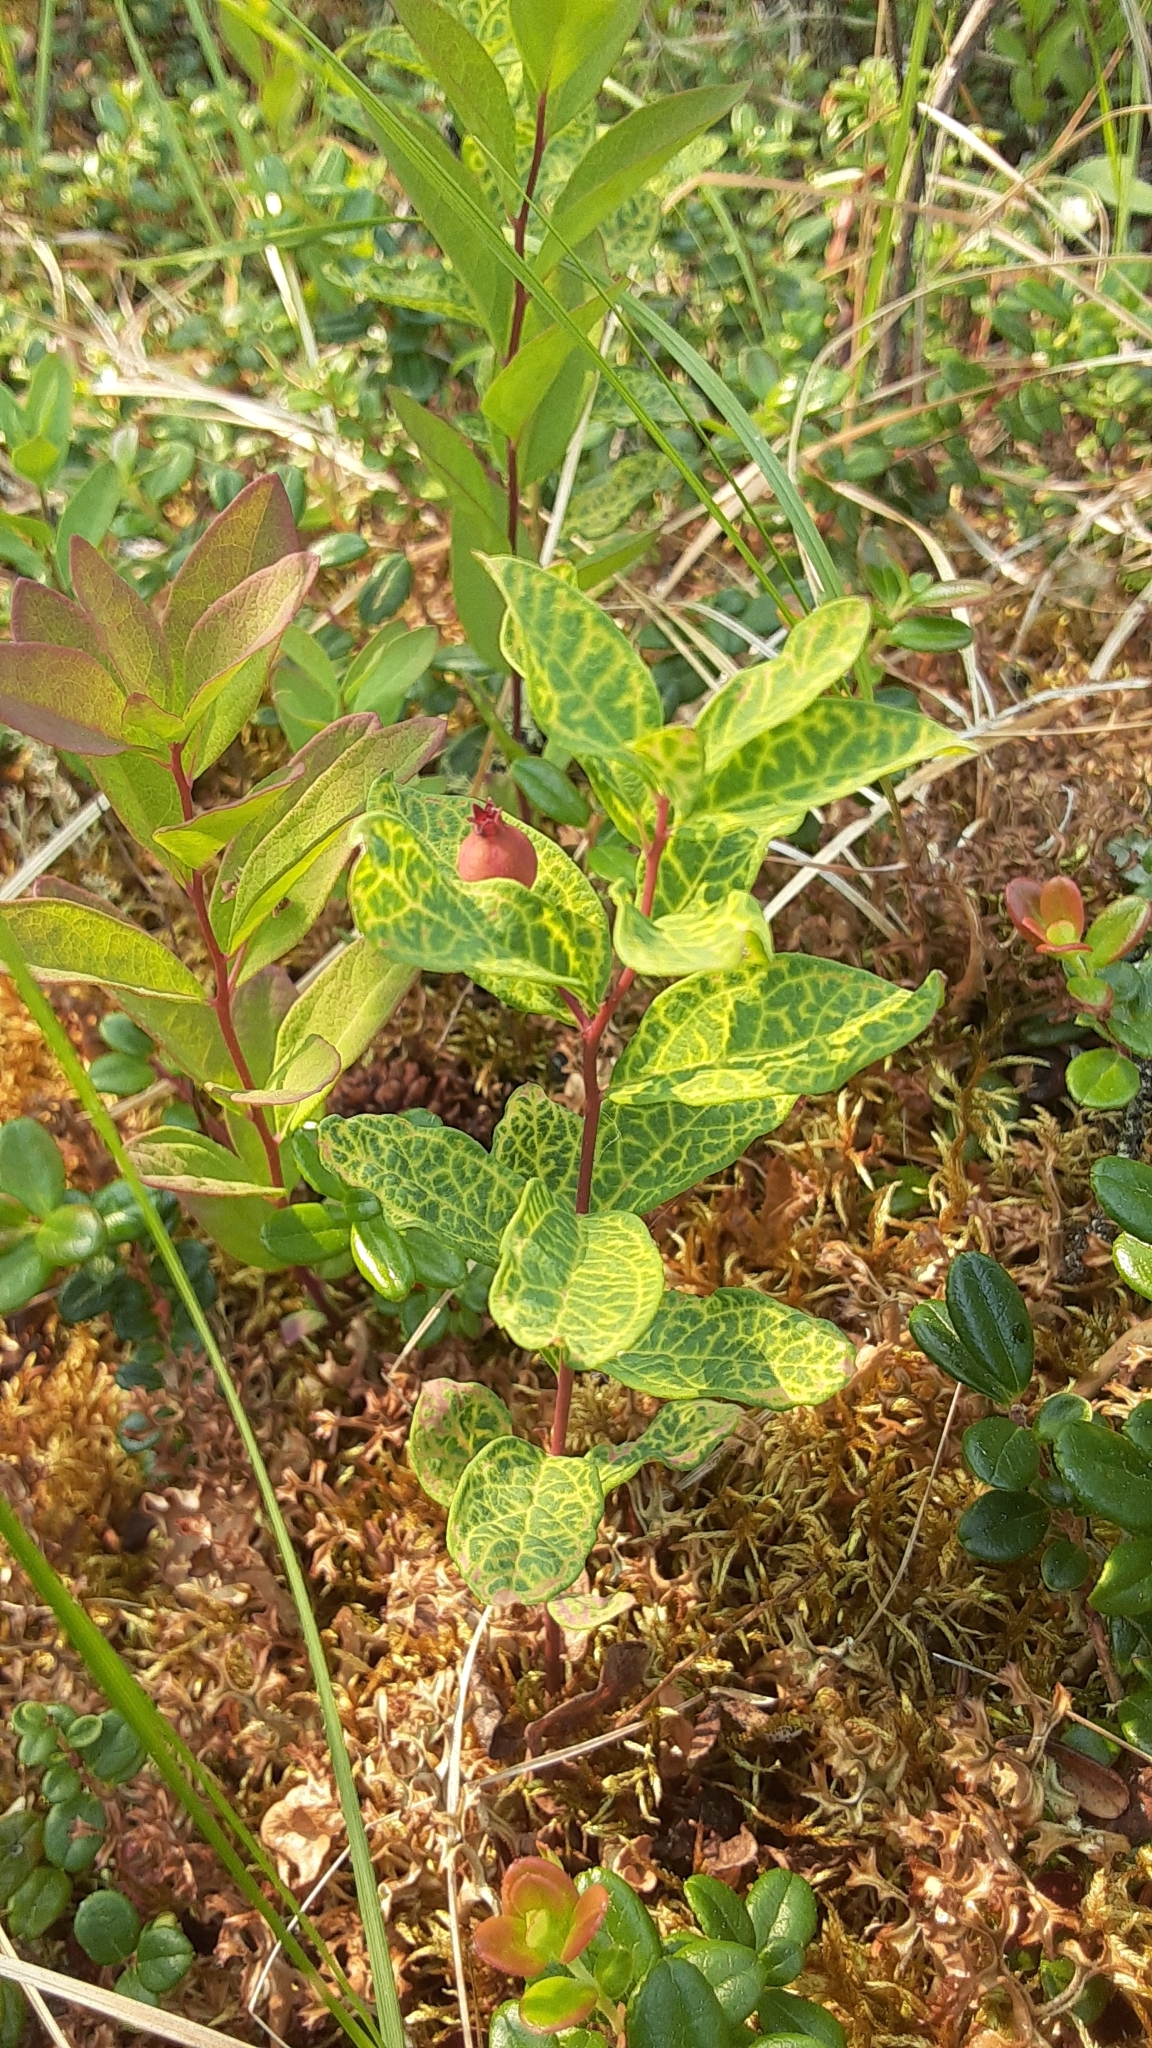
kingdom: Plantae
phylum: Tracheophyta
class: Magnoliopsida
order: Santalales
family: Comandraceae
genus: Geocaulon
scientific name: Geocaulon lividum
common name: Earthberry
